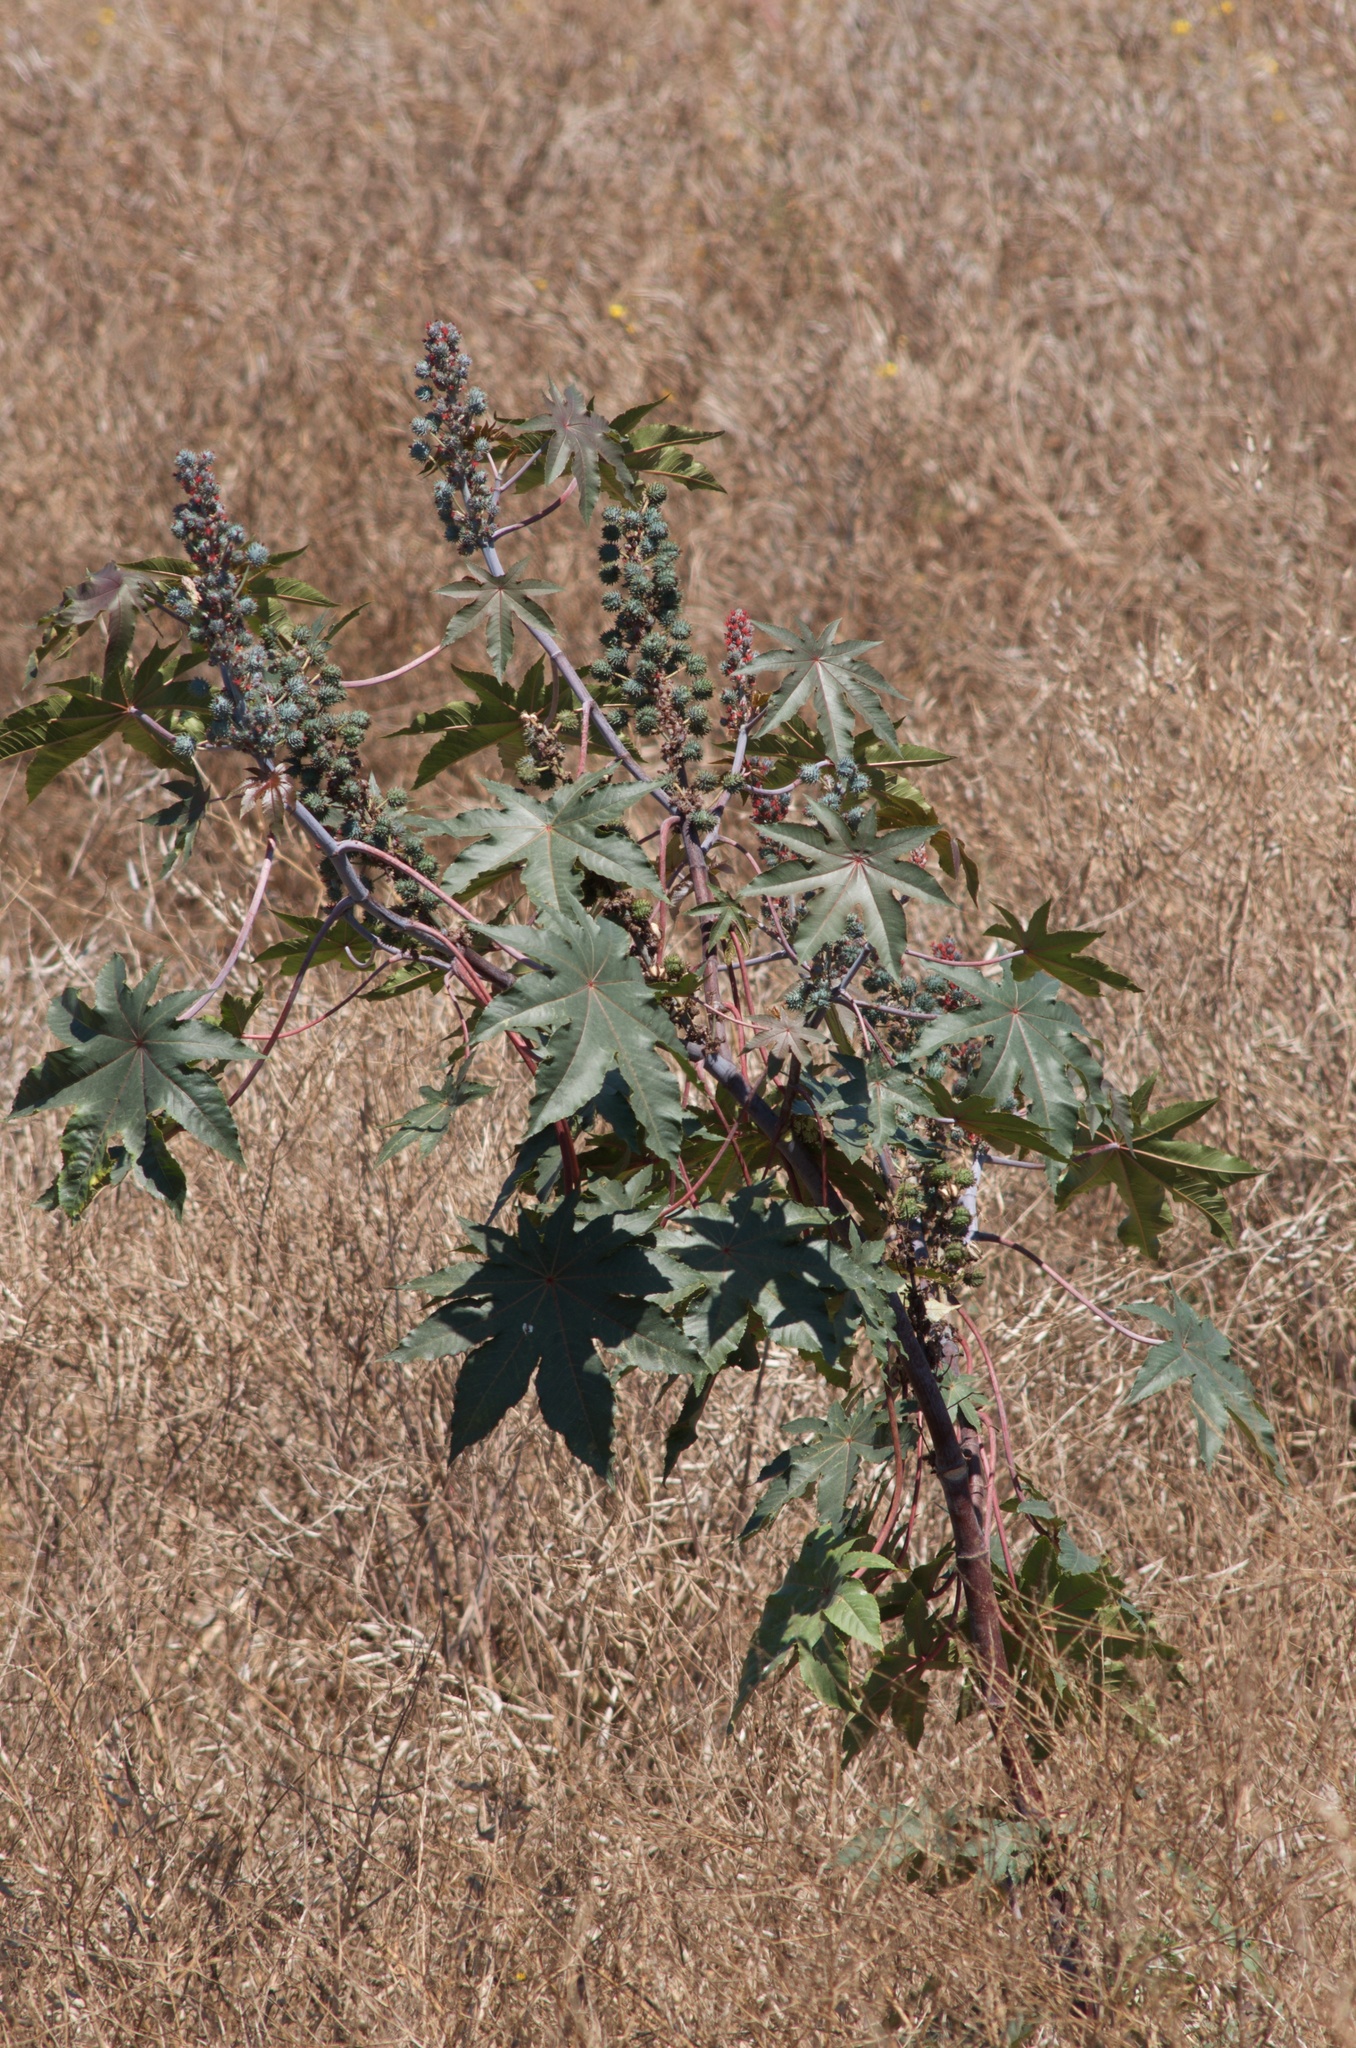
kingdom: Plantae
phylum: Tracheophyta
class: Magnoliopsida
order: Malpighiales
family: Euphorbiaceae
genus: Ricinus
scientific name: Ricinus communis
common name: Castor-oil-plant
